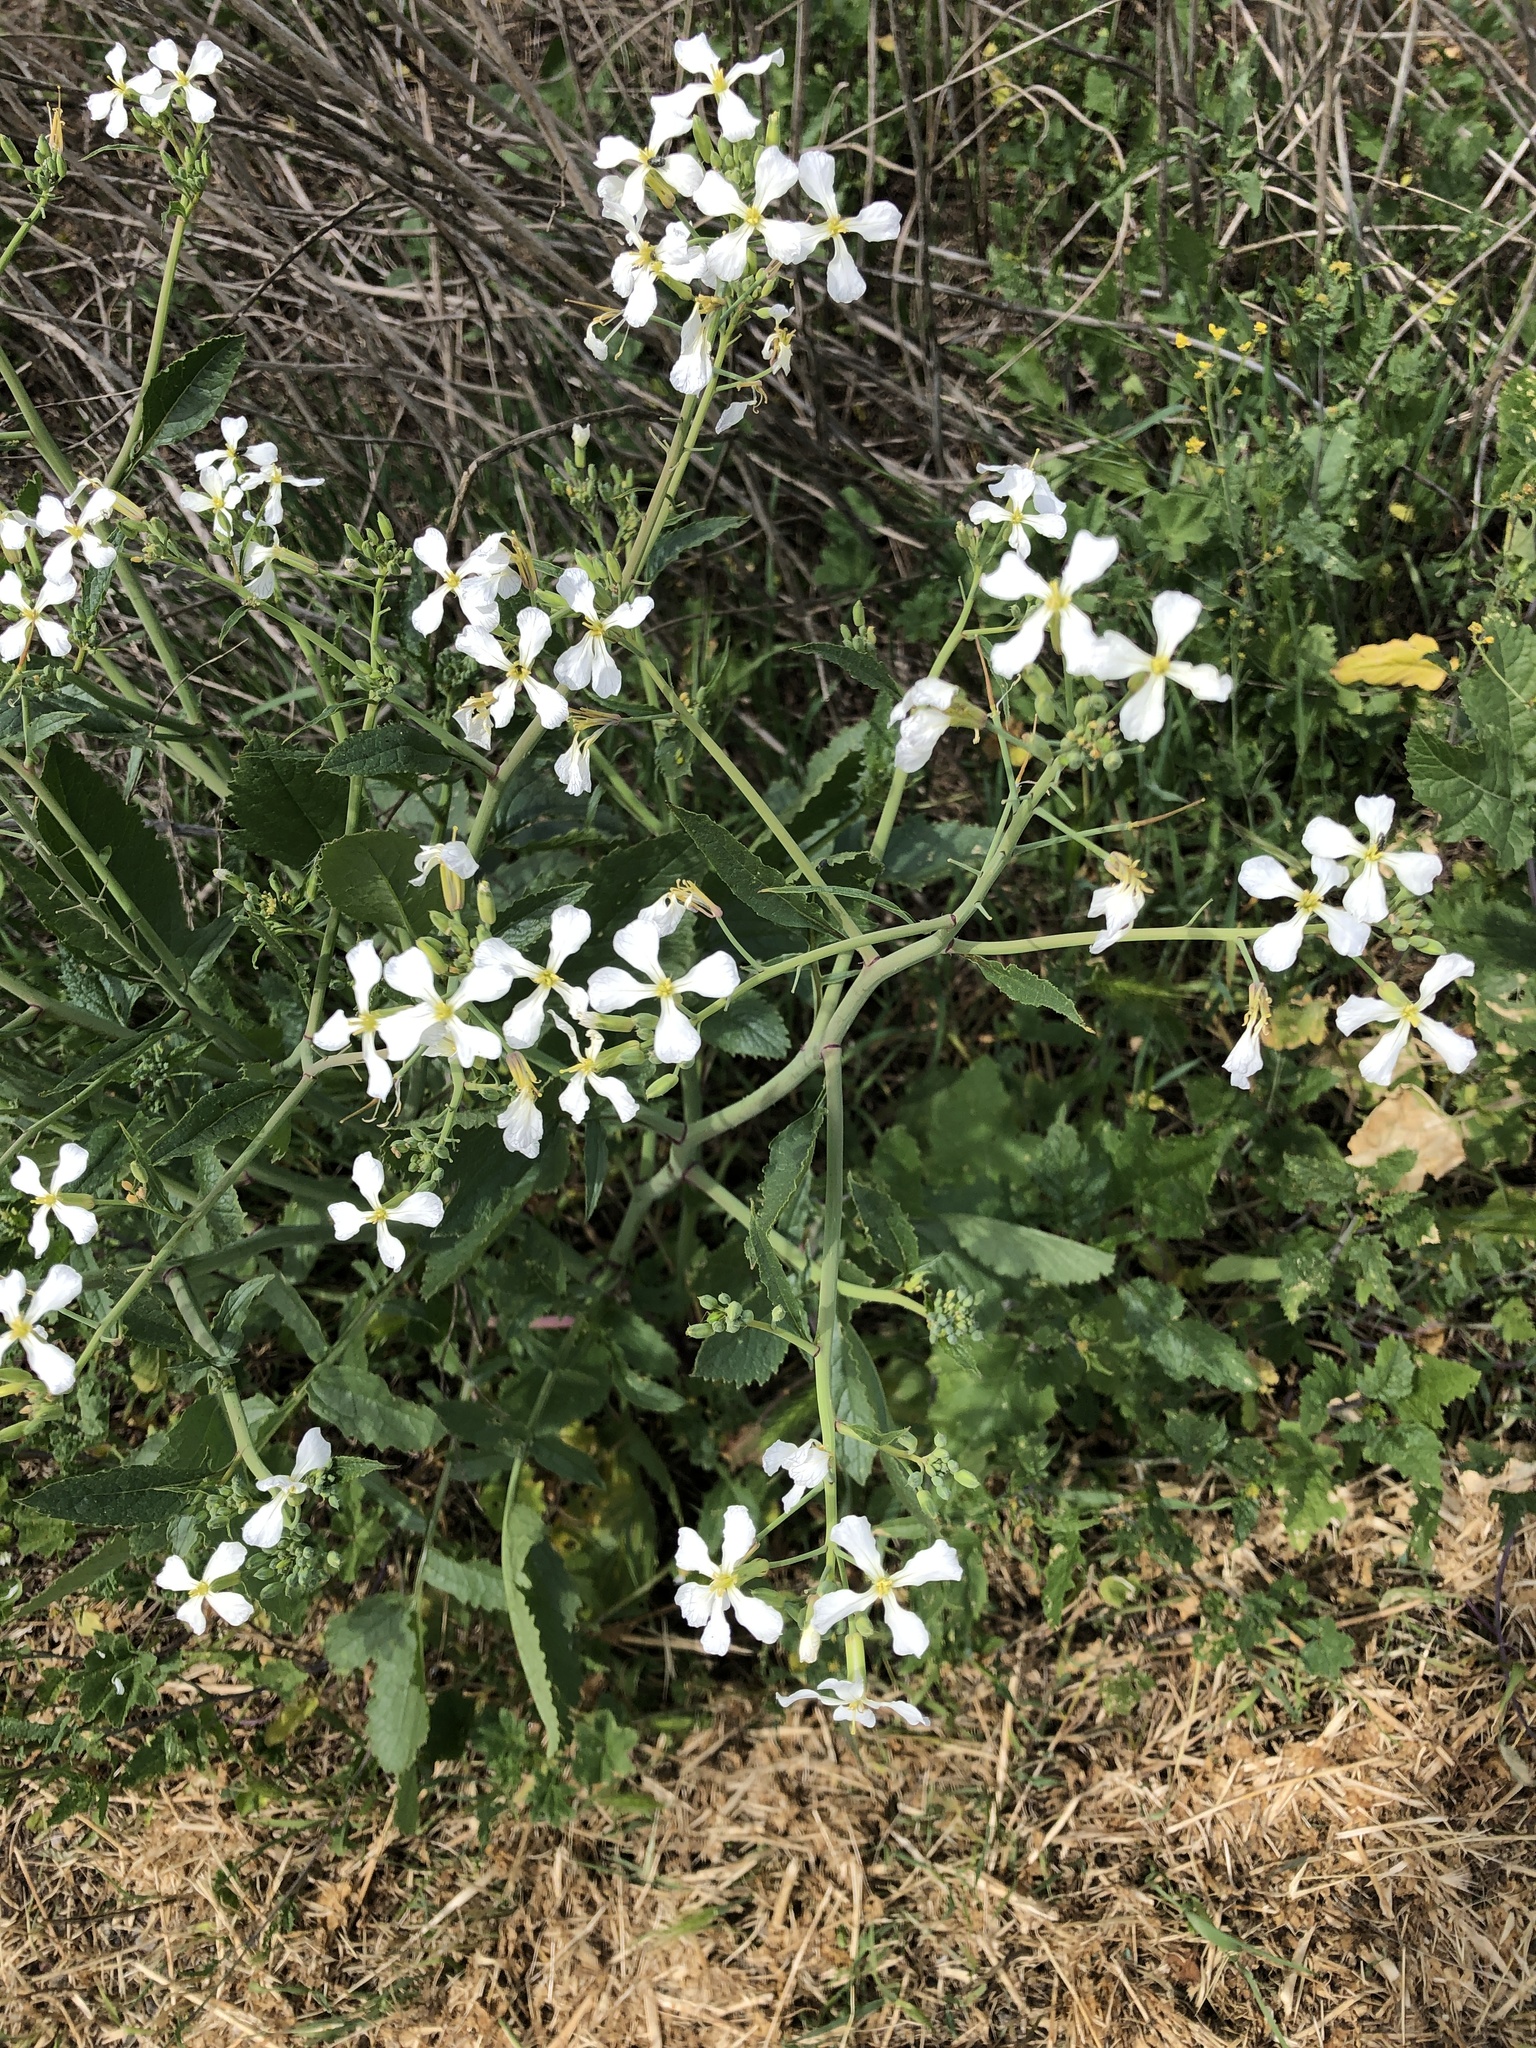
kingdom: Plantae
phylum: Tracheophyta
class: Magnoliopsida
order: Brassicales
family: Brassicaceae
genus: Raphanus
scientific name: Raphanus sativus
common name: Cultivated radish
